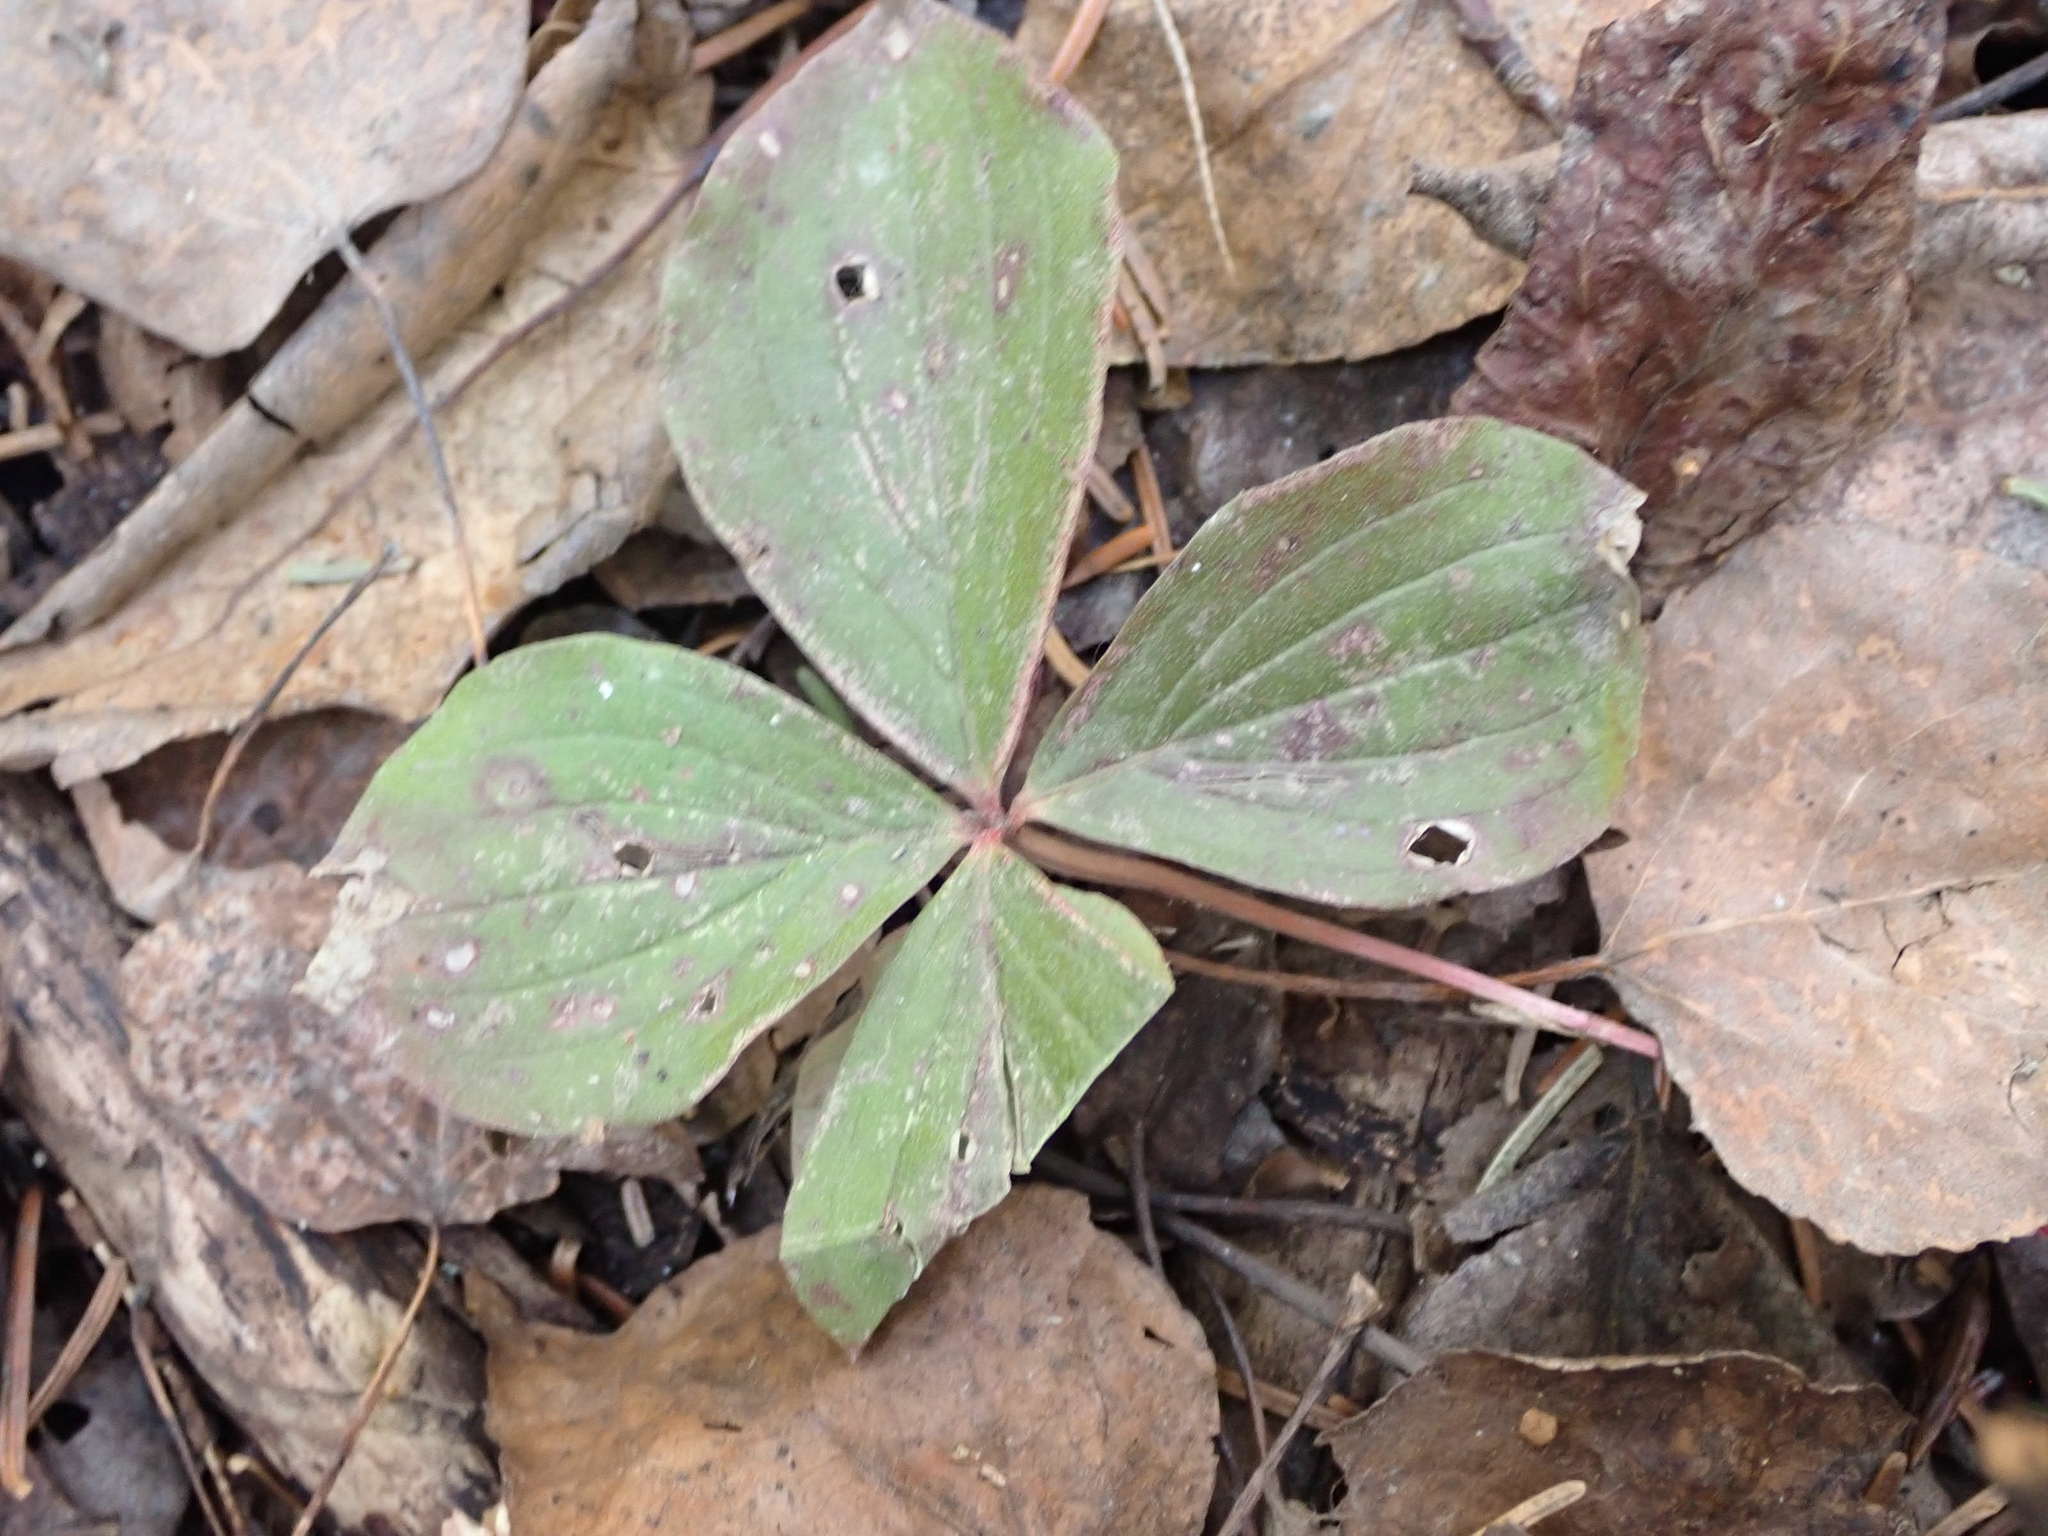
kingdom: Plantae
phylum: Tracheophyta
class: Magnoliopsida
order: Cornales
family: Cornaceae
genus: Cornus
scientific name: Cornus canadensis
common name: Creeping dogwood
